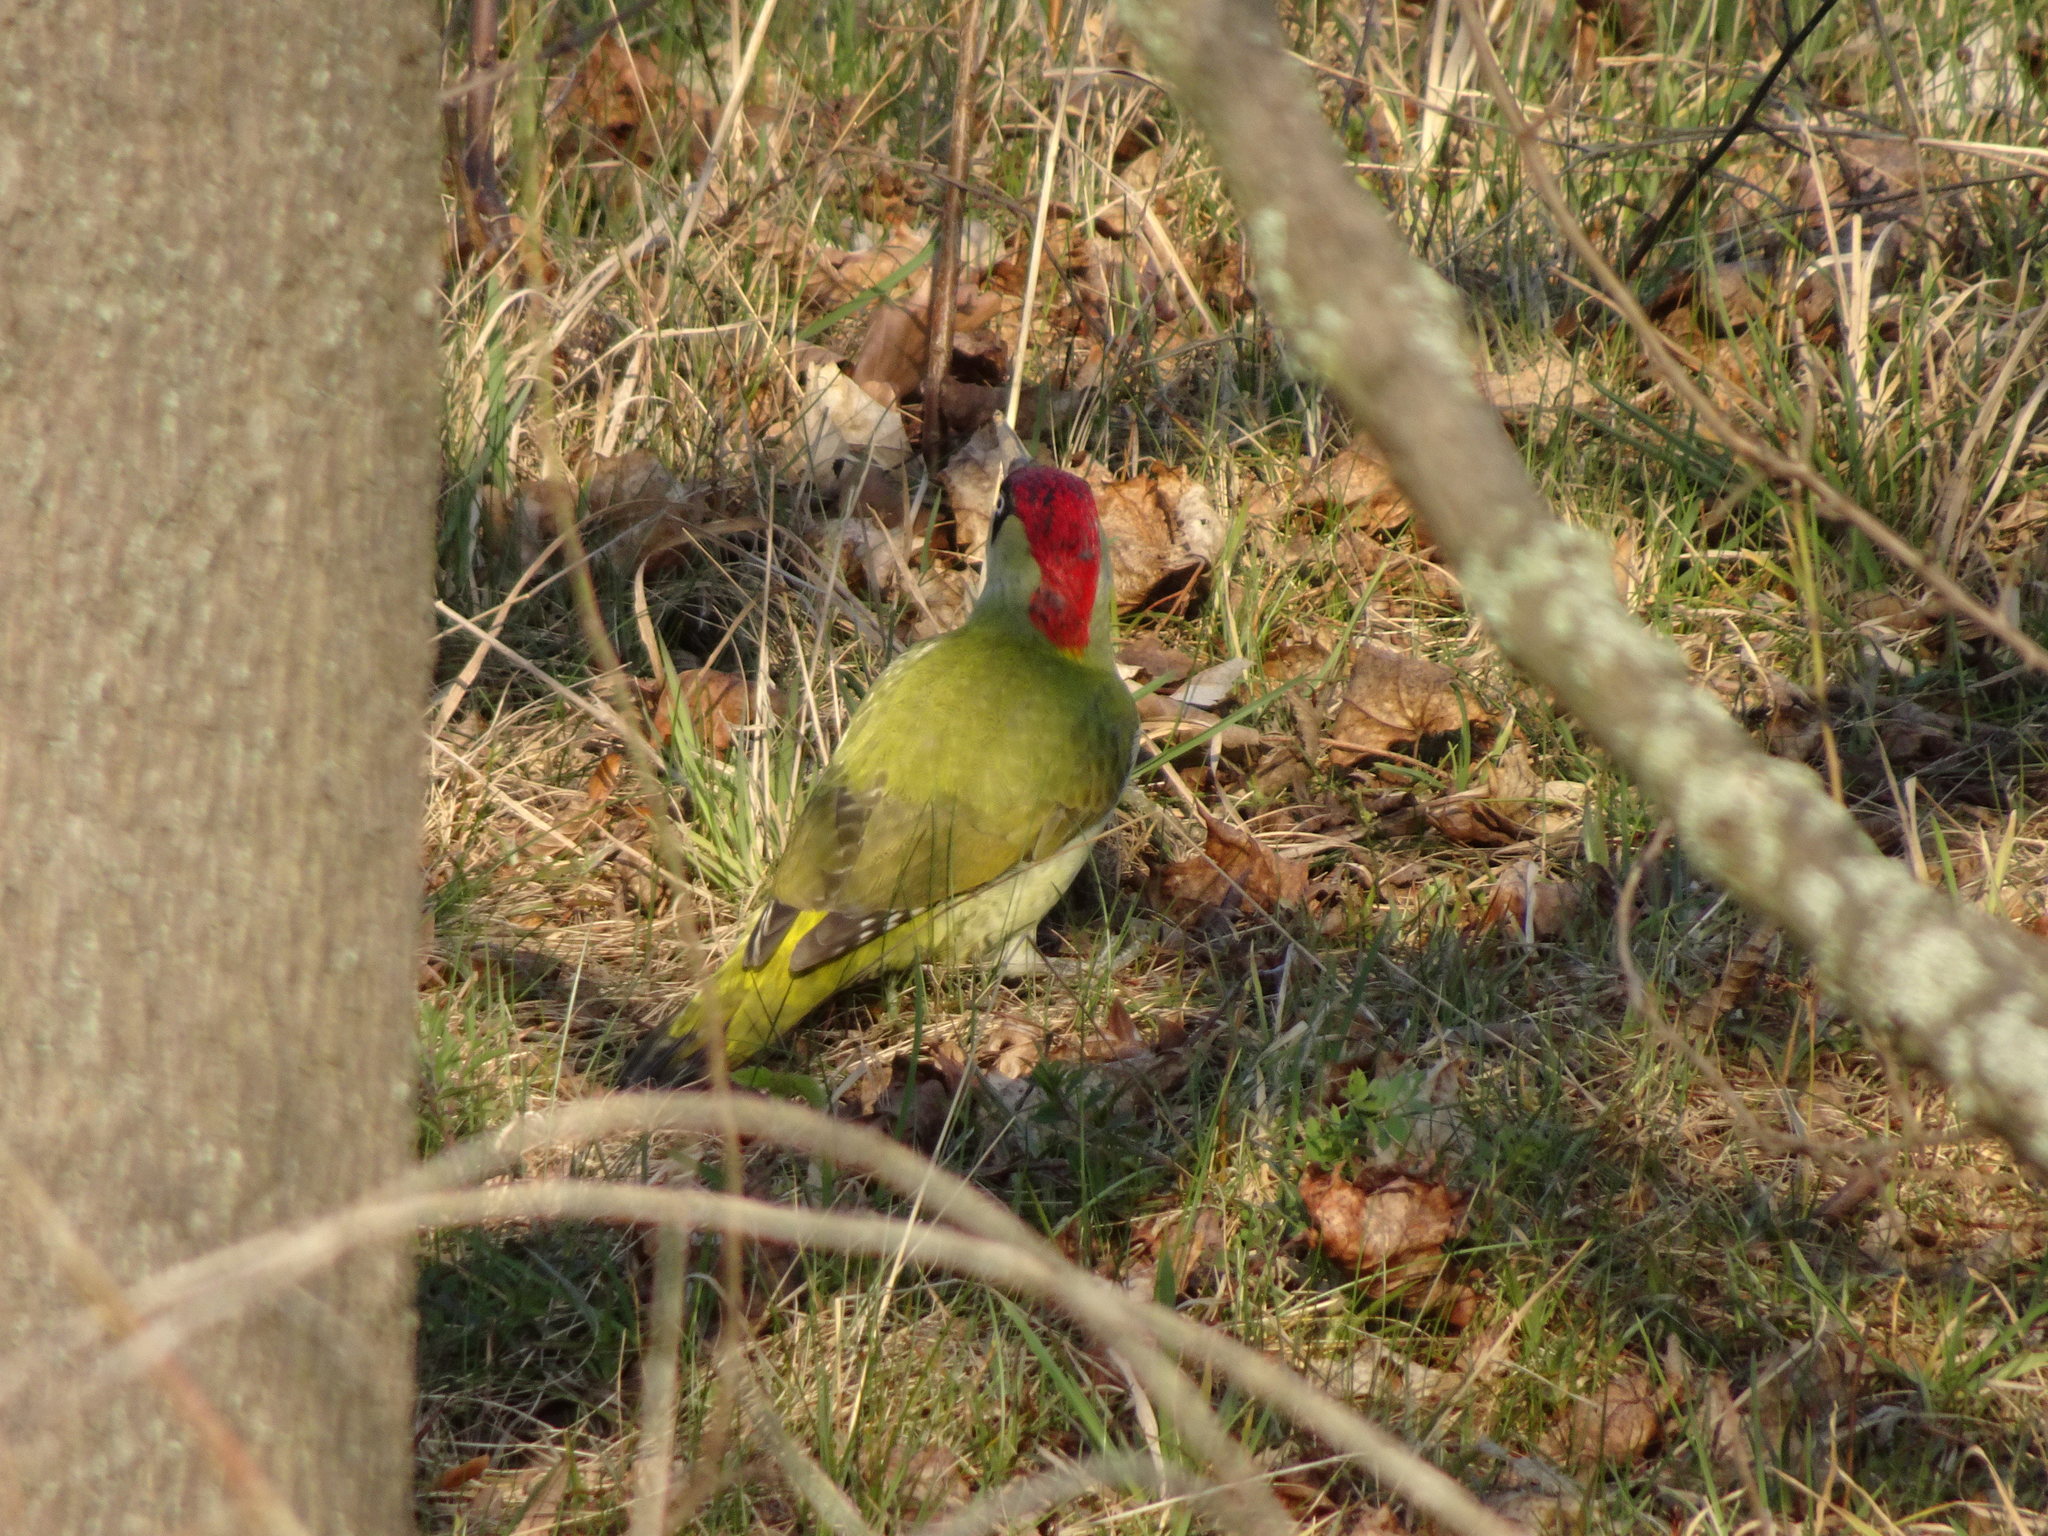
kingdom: Animalia
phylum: Chordata
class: Aves
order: Piciformes
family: Picidae
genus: Picus
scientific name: Picus viridis
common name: European green woodpecker
